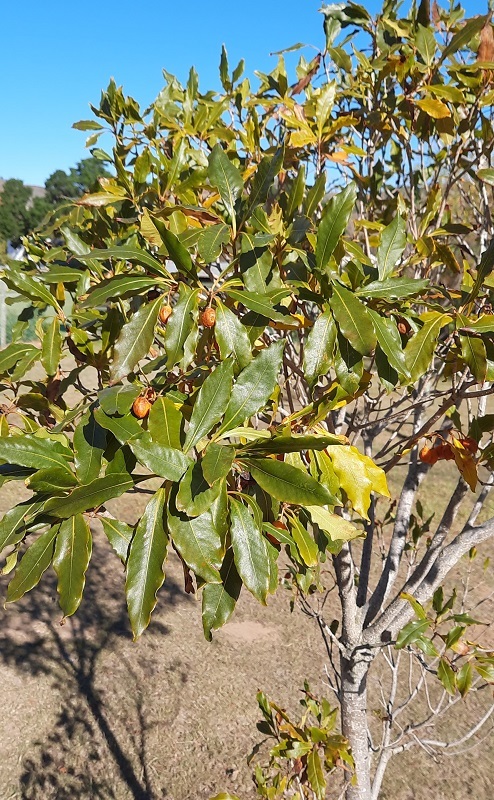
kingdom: Plantae
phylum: Tracheophyta
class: Magnoliopsida
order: Apiales
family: Pittosporaceae
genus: Pittosporum
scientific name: Pittosporum undulatum
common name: Australian cheesewood
